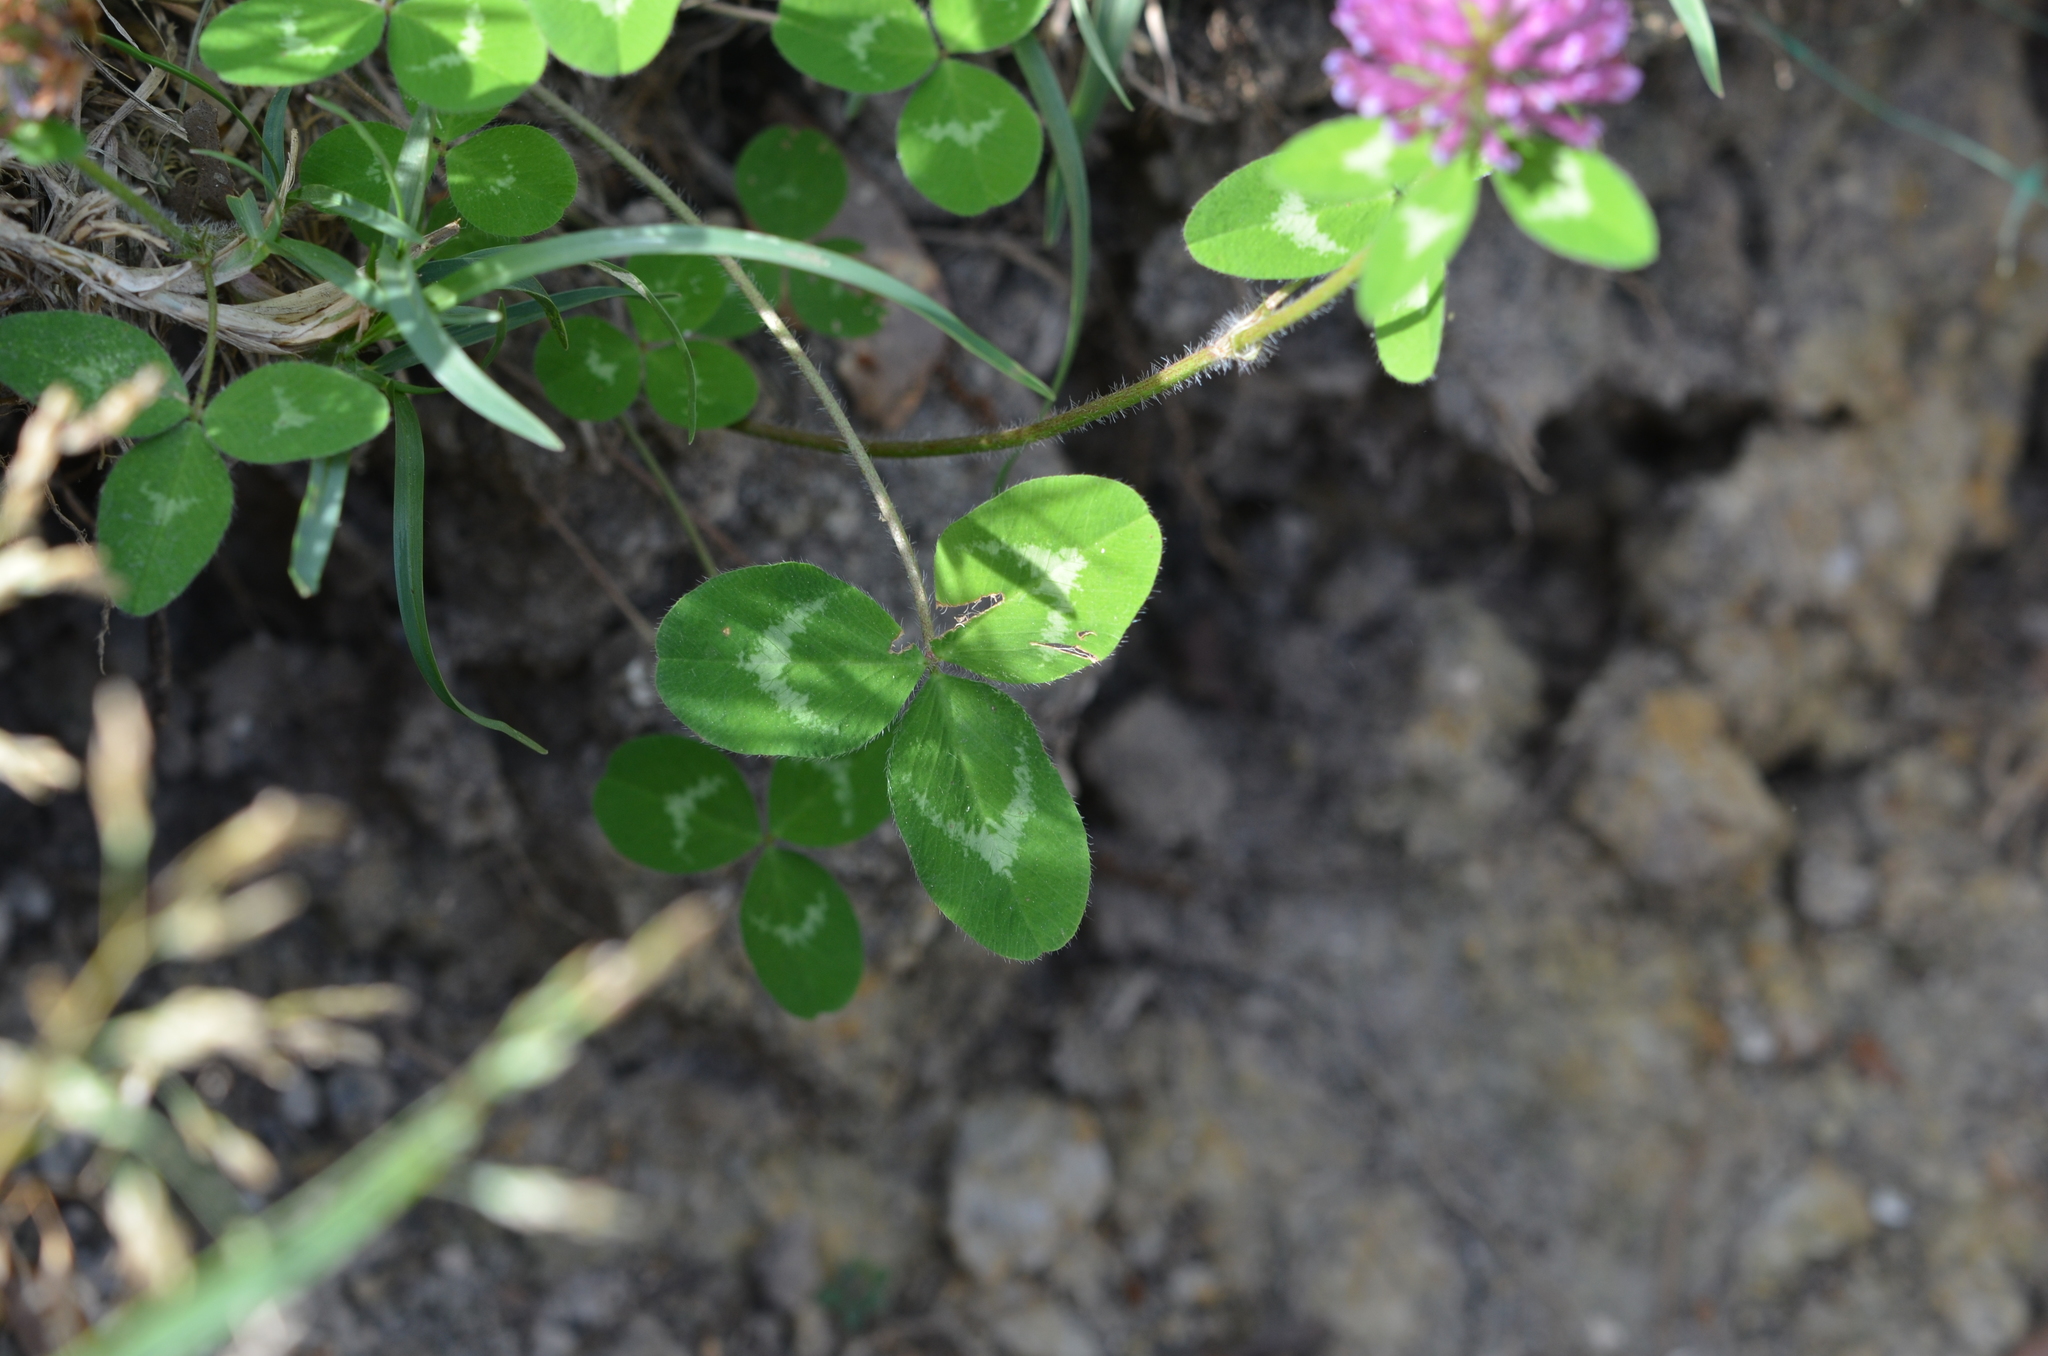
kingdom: Plantae
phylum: Tracheophyta
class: Magnoliopsida
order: Fabales
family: Fabaceae
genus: Trifolium
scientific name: Trifolium pratense
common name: Red clover
